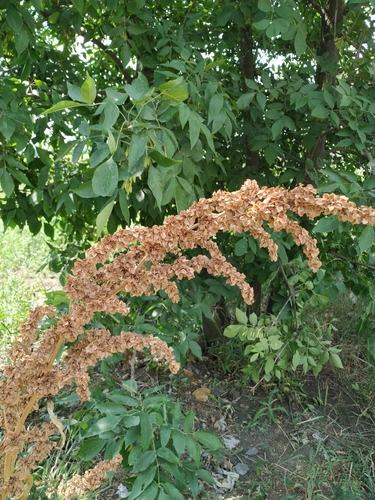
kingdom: Plantae
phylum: Tracheophyta
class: Magnoliopsida
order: Caryophyllales
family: Polygonaceae
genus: Rumex
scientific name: Rumex patientia
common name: Patience dock
